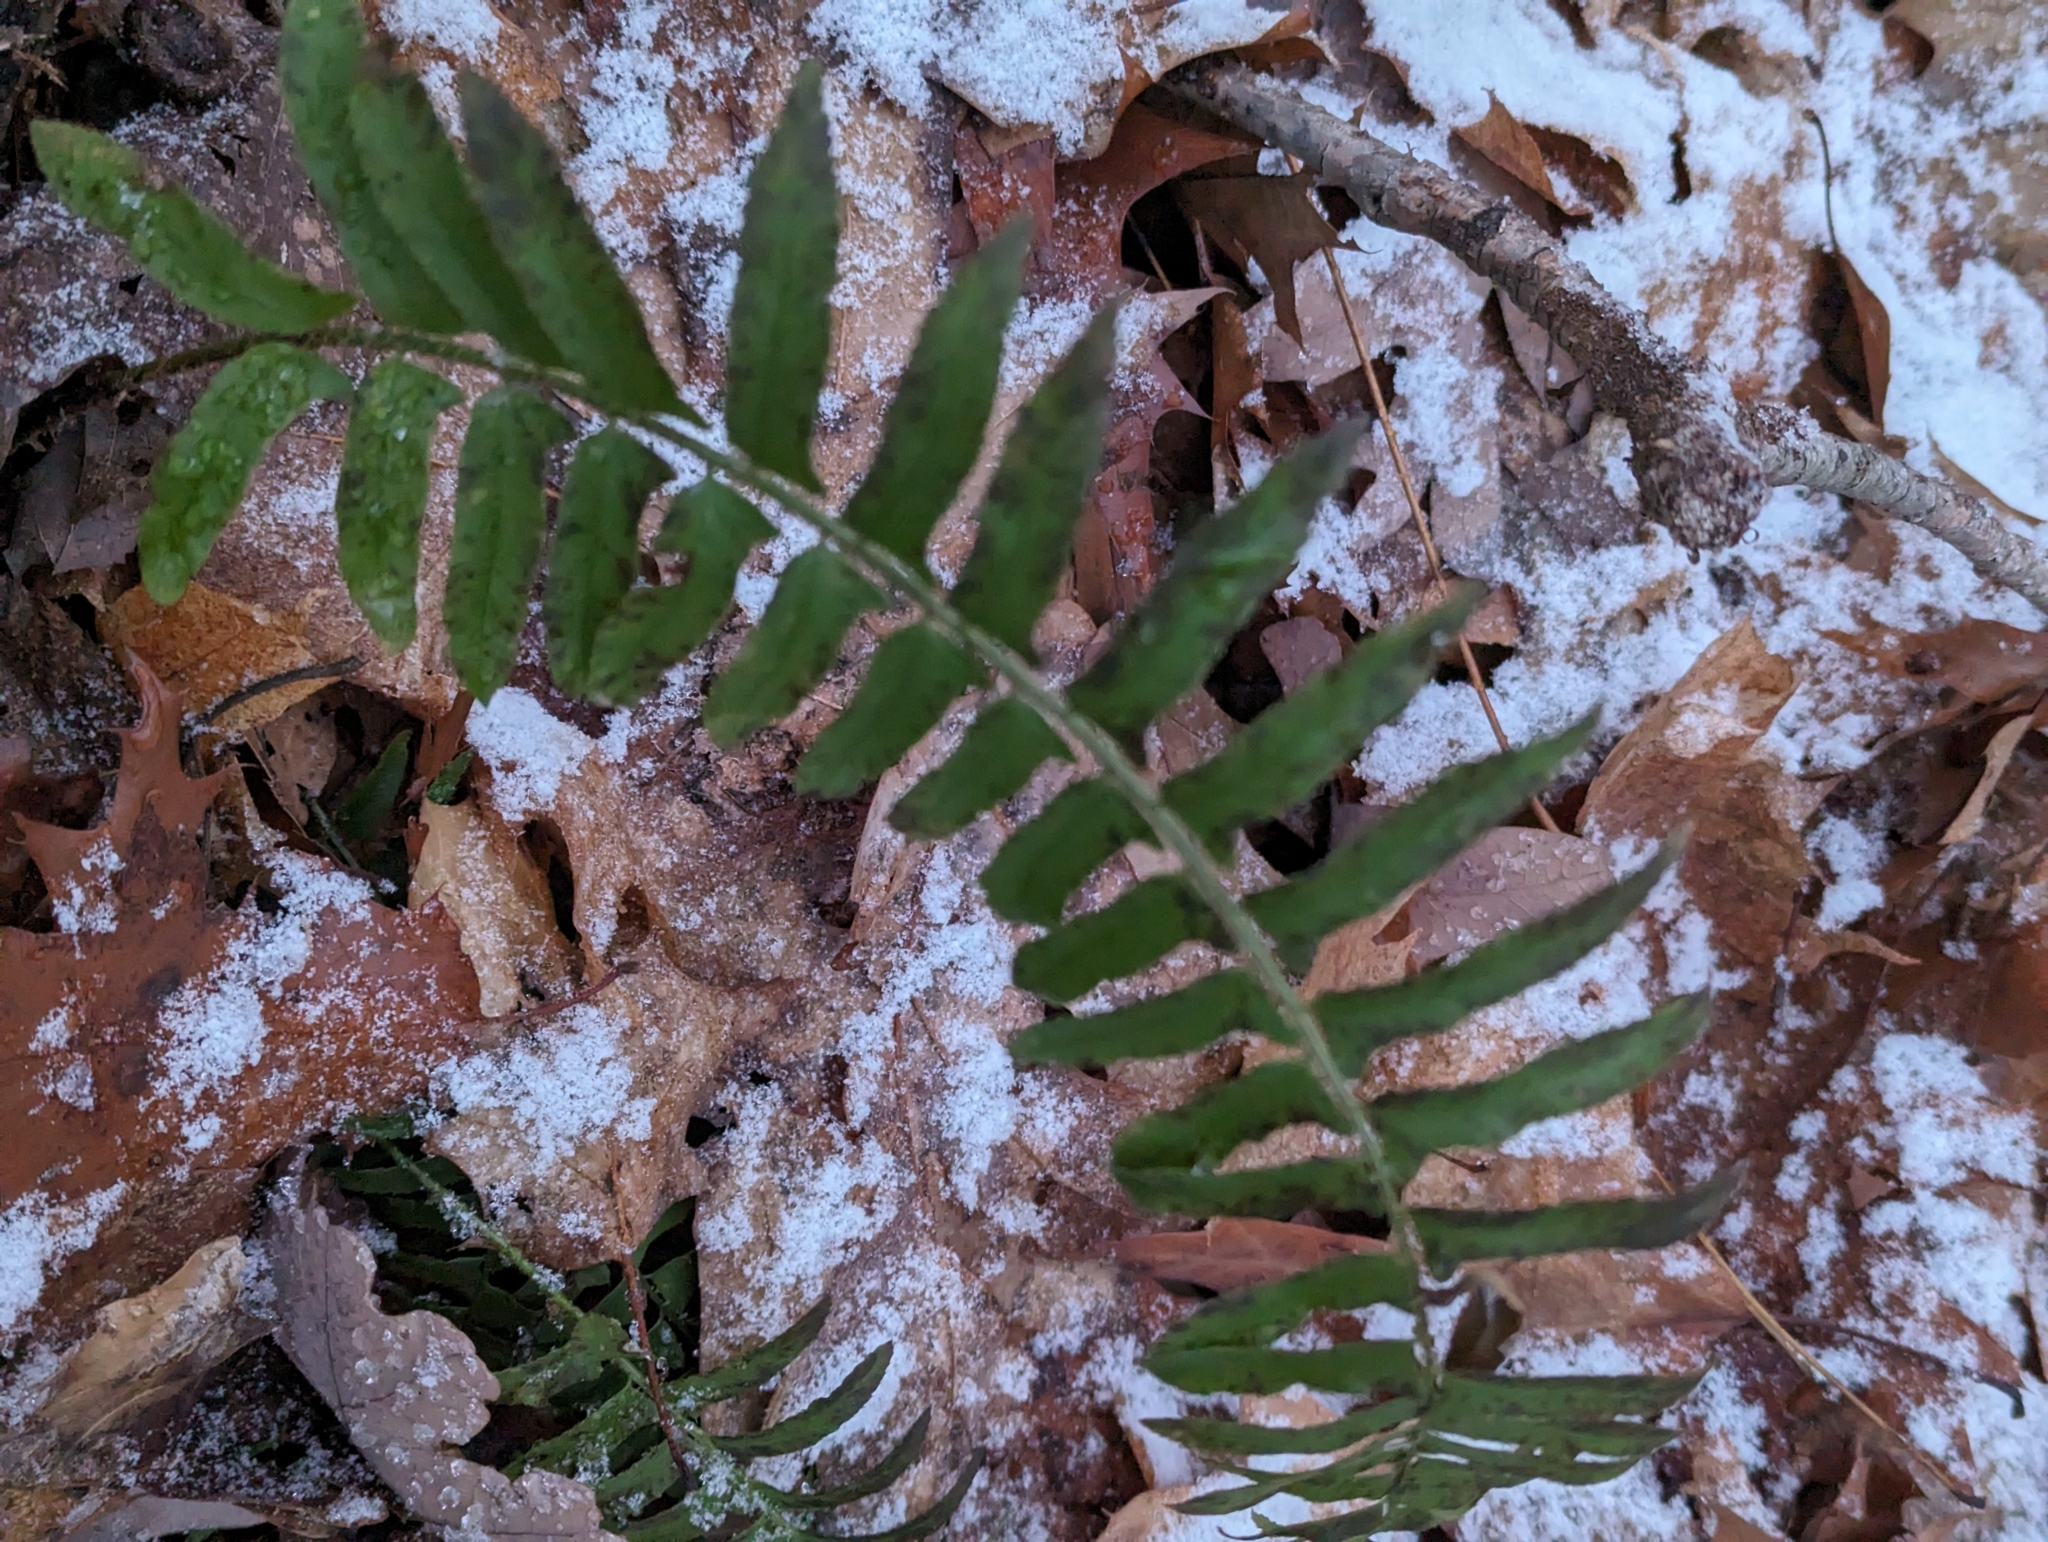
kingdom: Plantae
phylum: Tracheophyta
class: Polypodiopsida
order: Polypodiales
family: Dryopteridaceae
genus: Polystichum
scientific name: Polystichum acrostichoides
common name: Christmas fern
